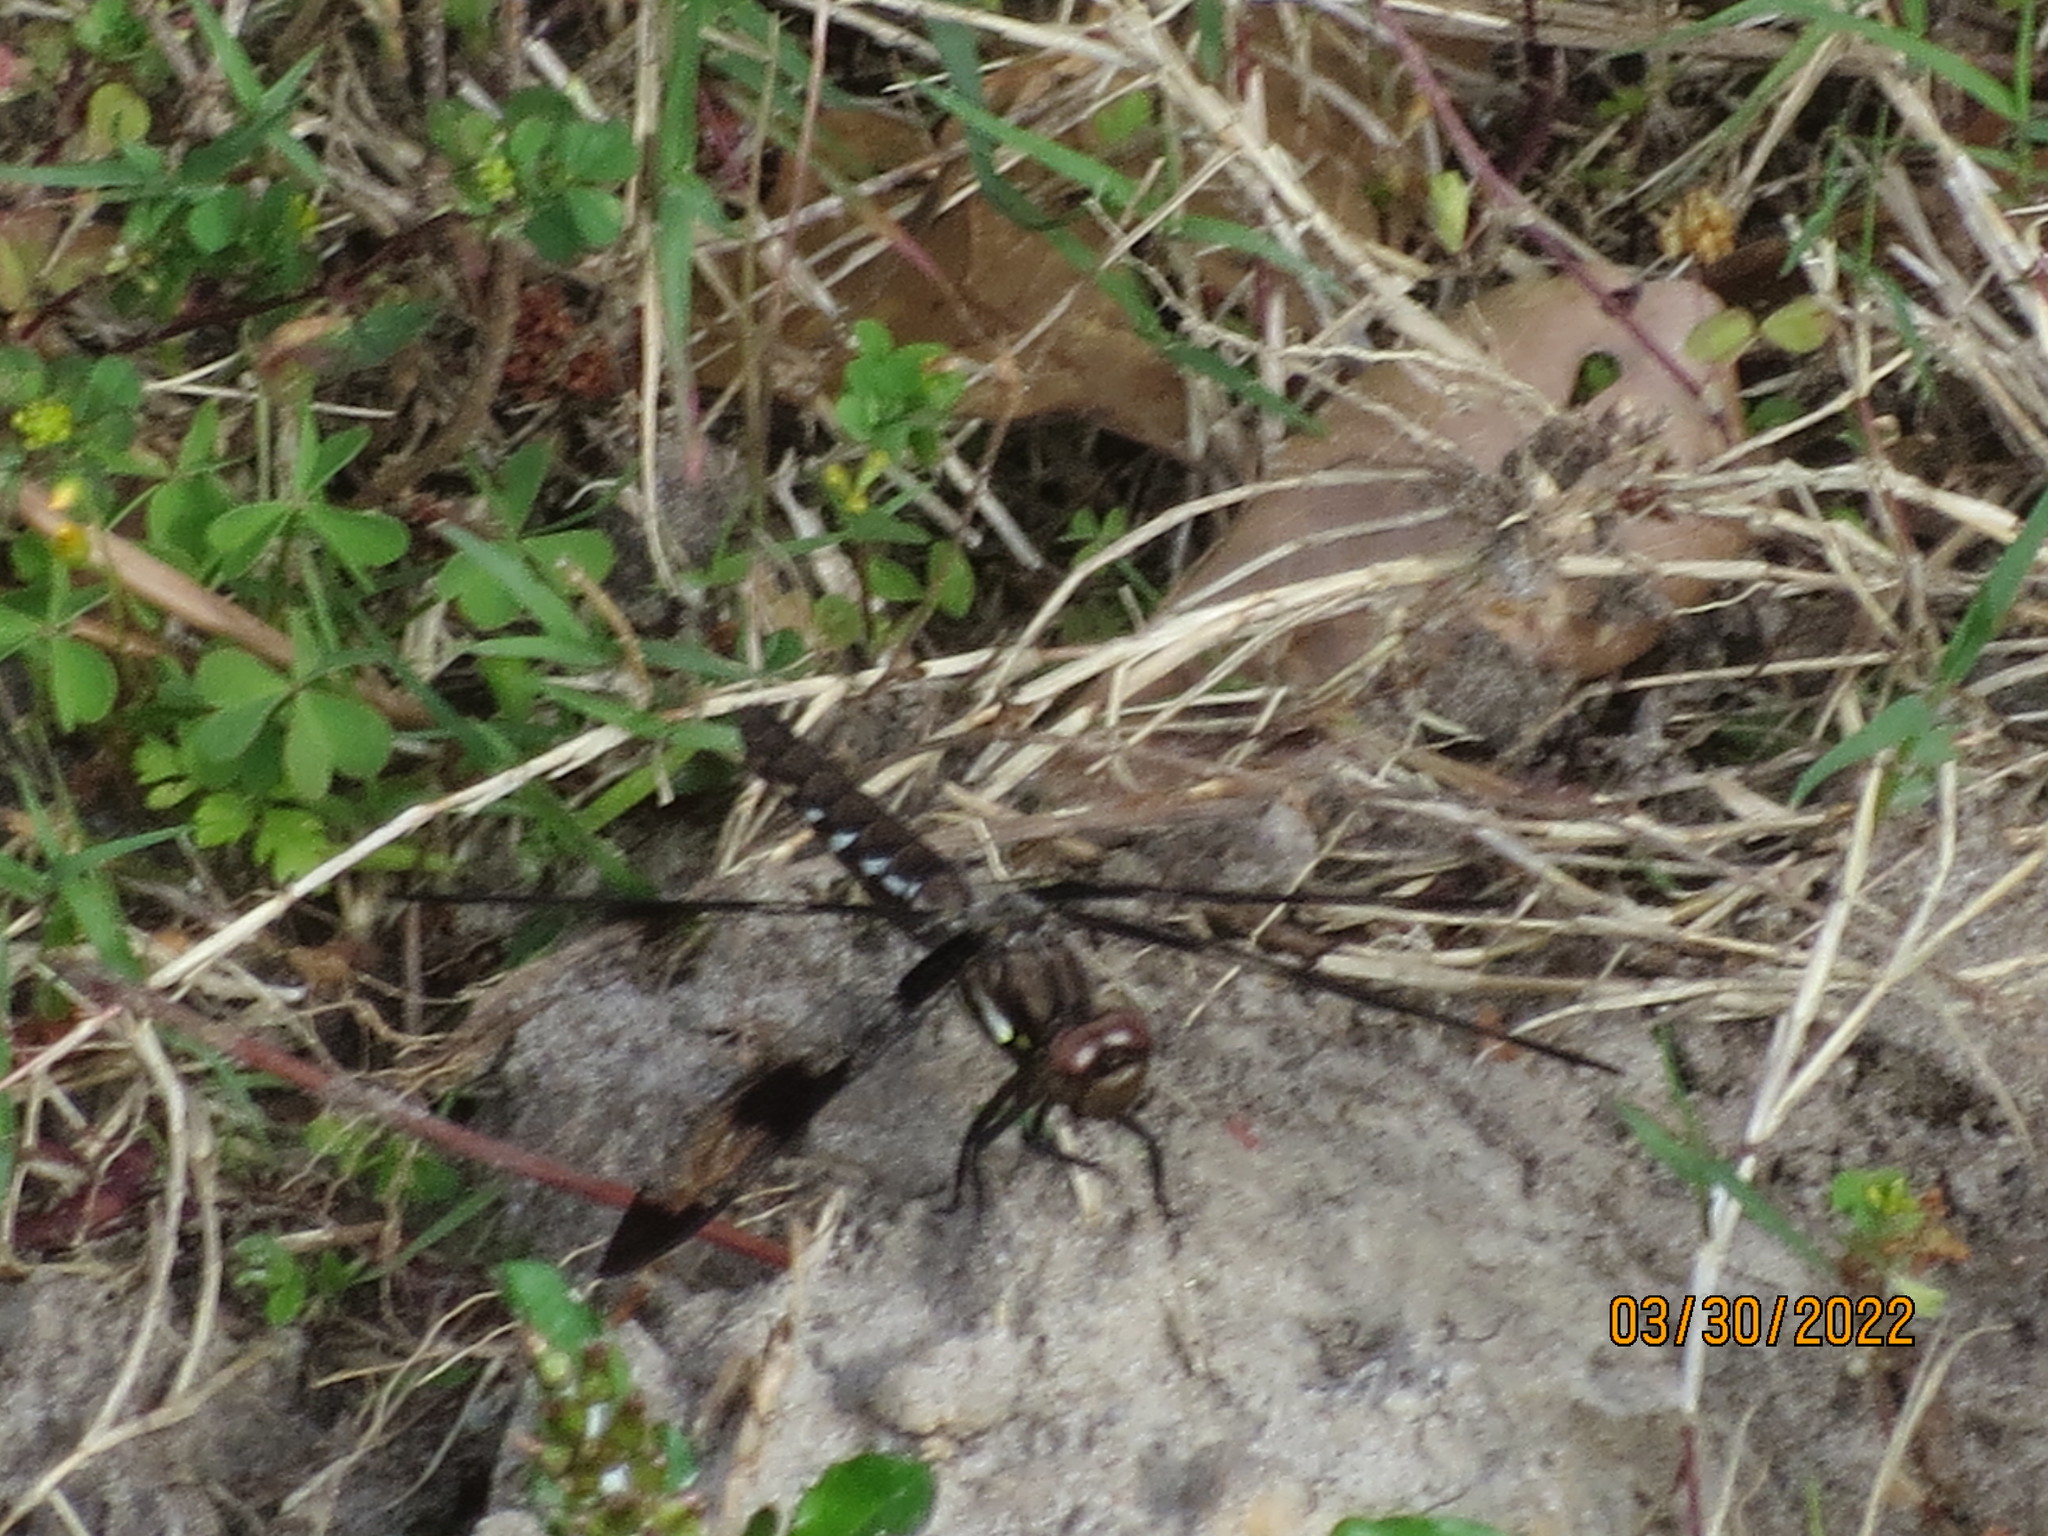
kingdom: Animalia
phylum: Arthropoda
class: Insecta
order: Odonata
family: Libellulidae
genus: Plathemis
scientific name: Plathemis lydia
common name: Common whitetail
